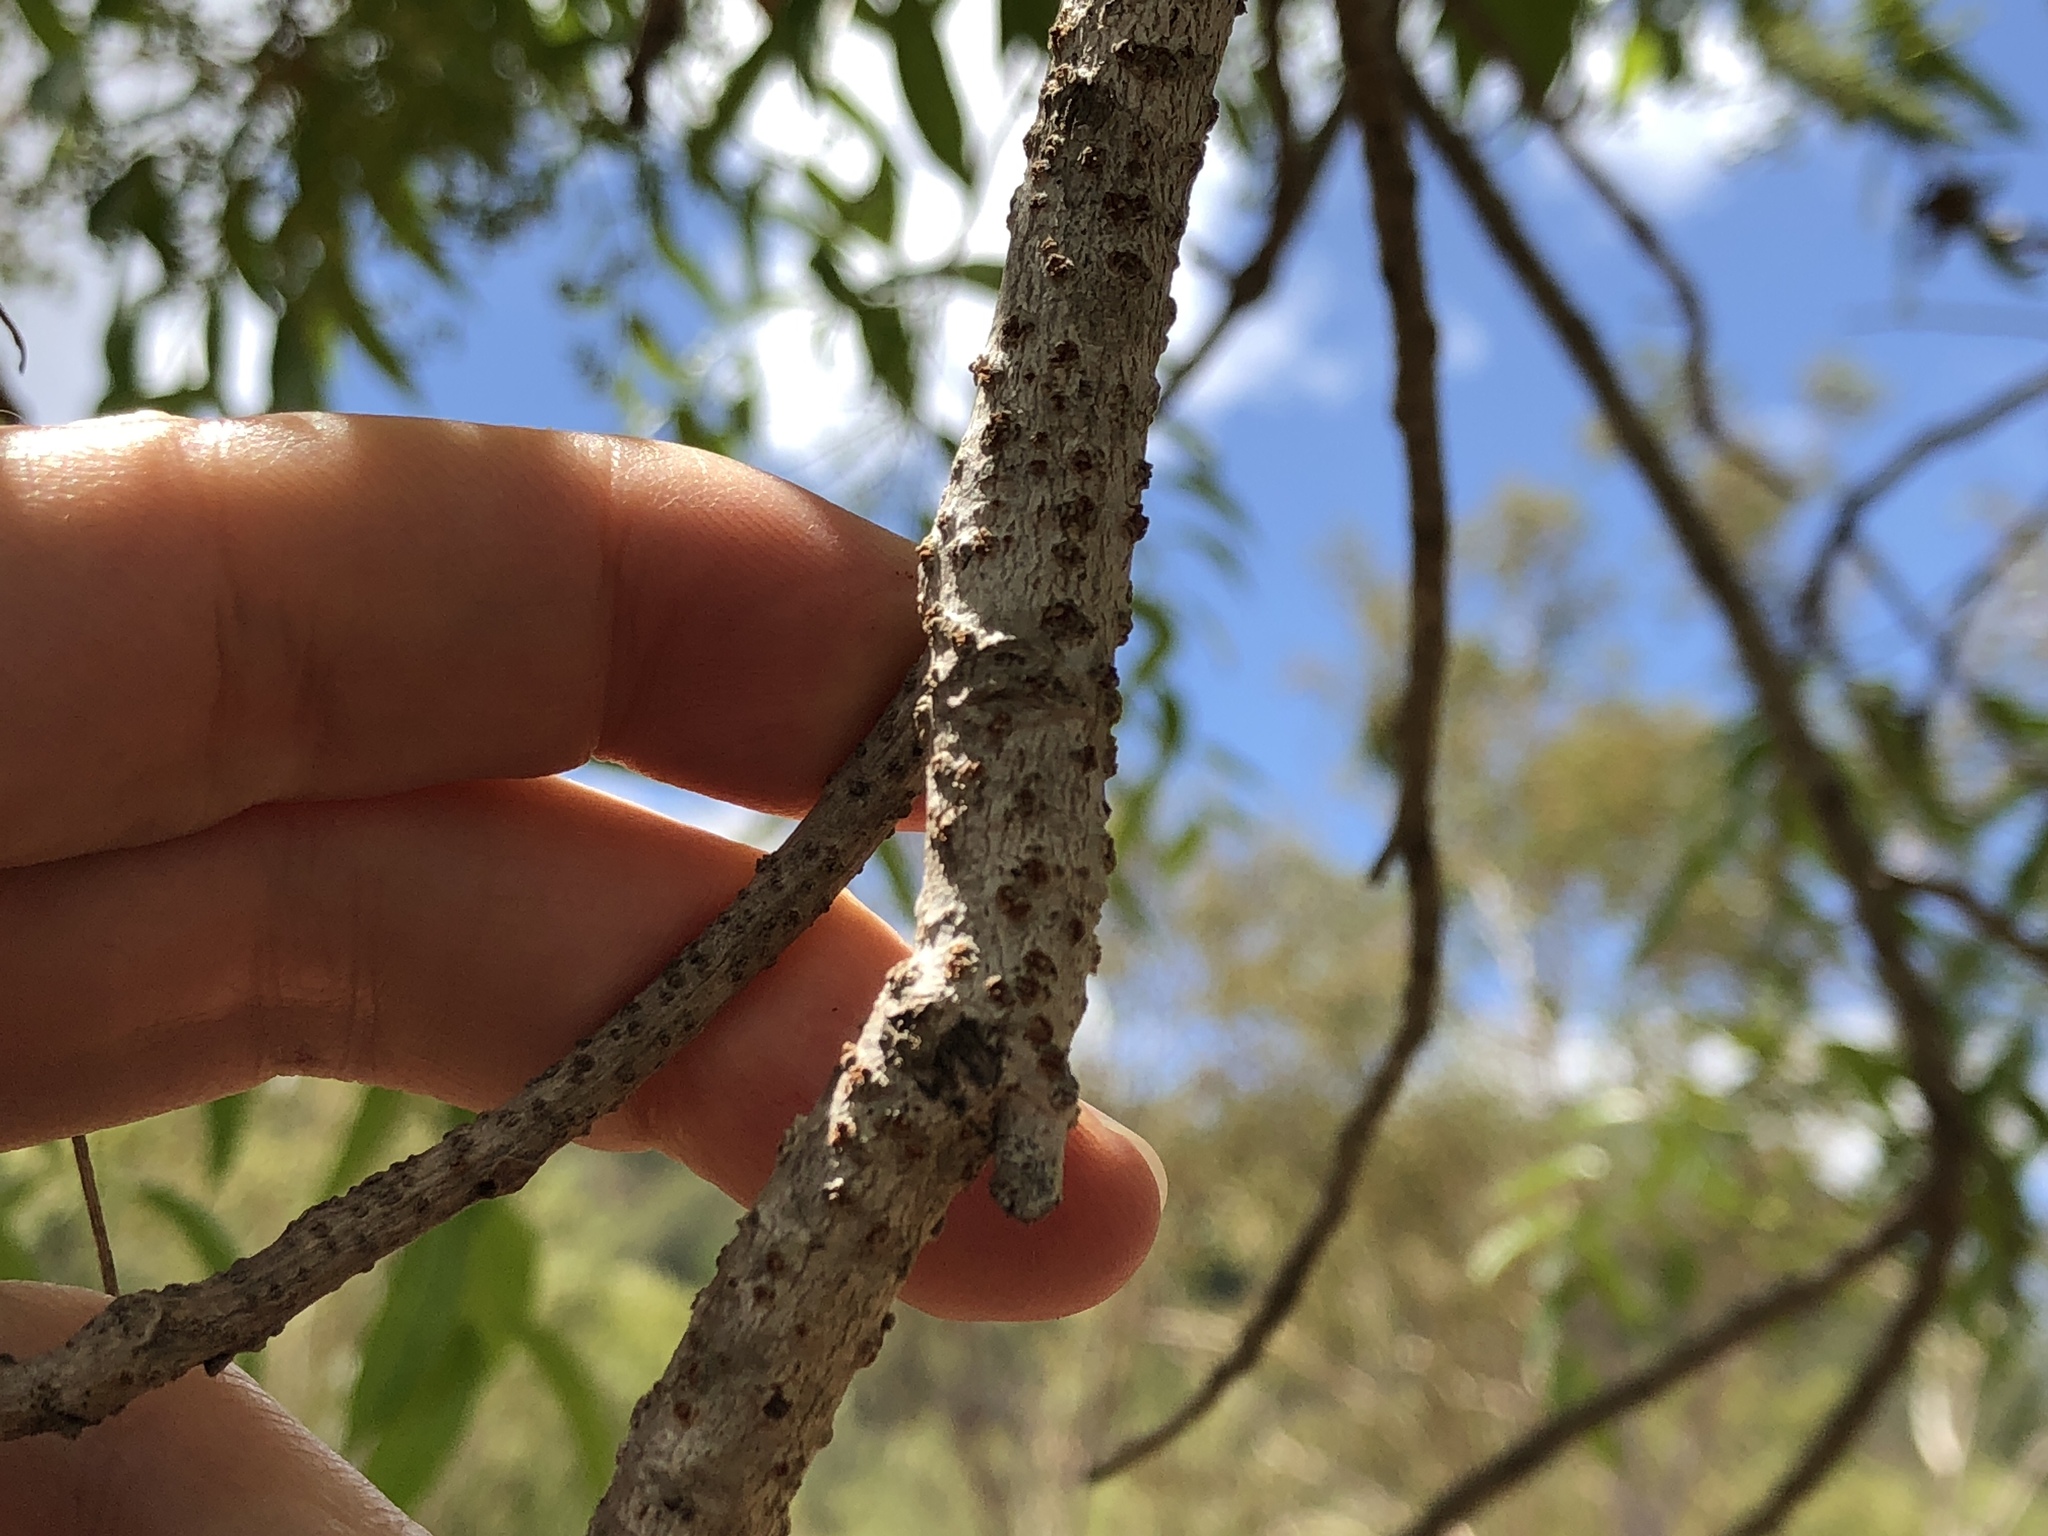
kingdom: Plantae
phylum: Tracheophyta
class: Magnoliopsida
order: Sapindales
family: Anacardiaceae
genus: Euroschinus
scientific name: Euroschinus falcatus
